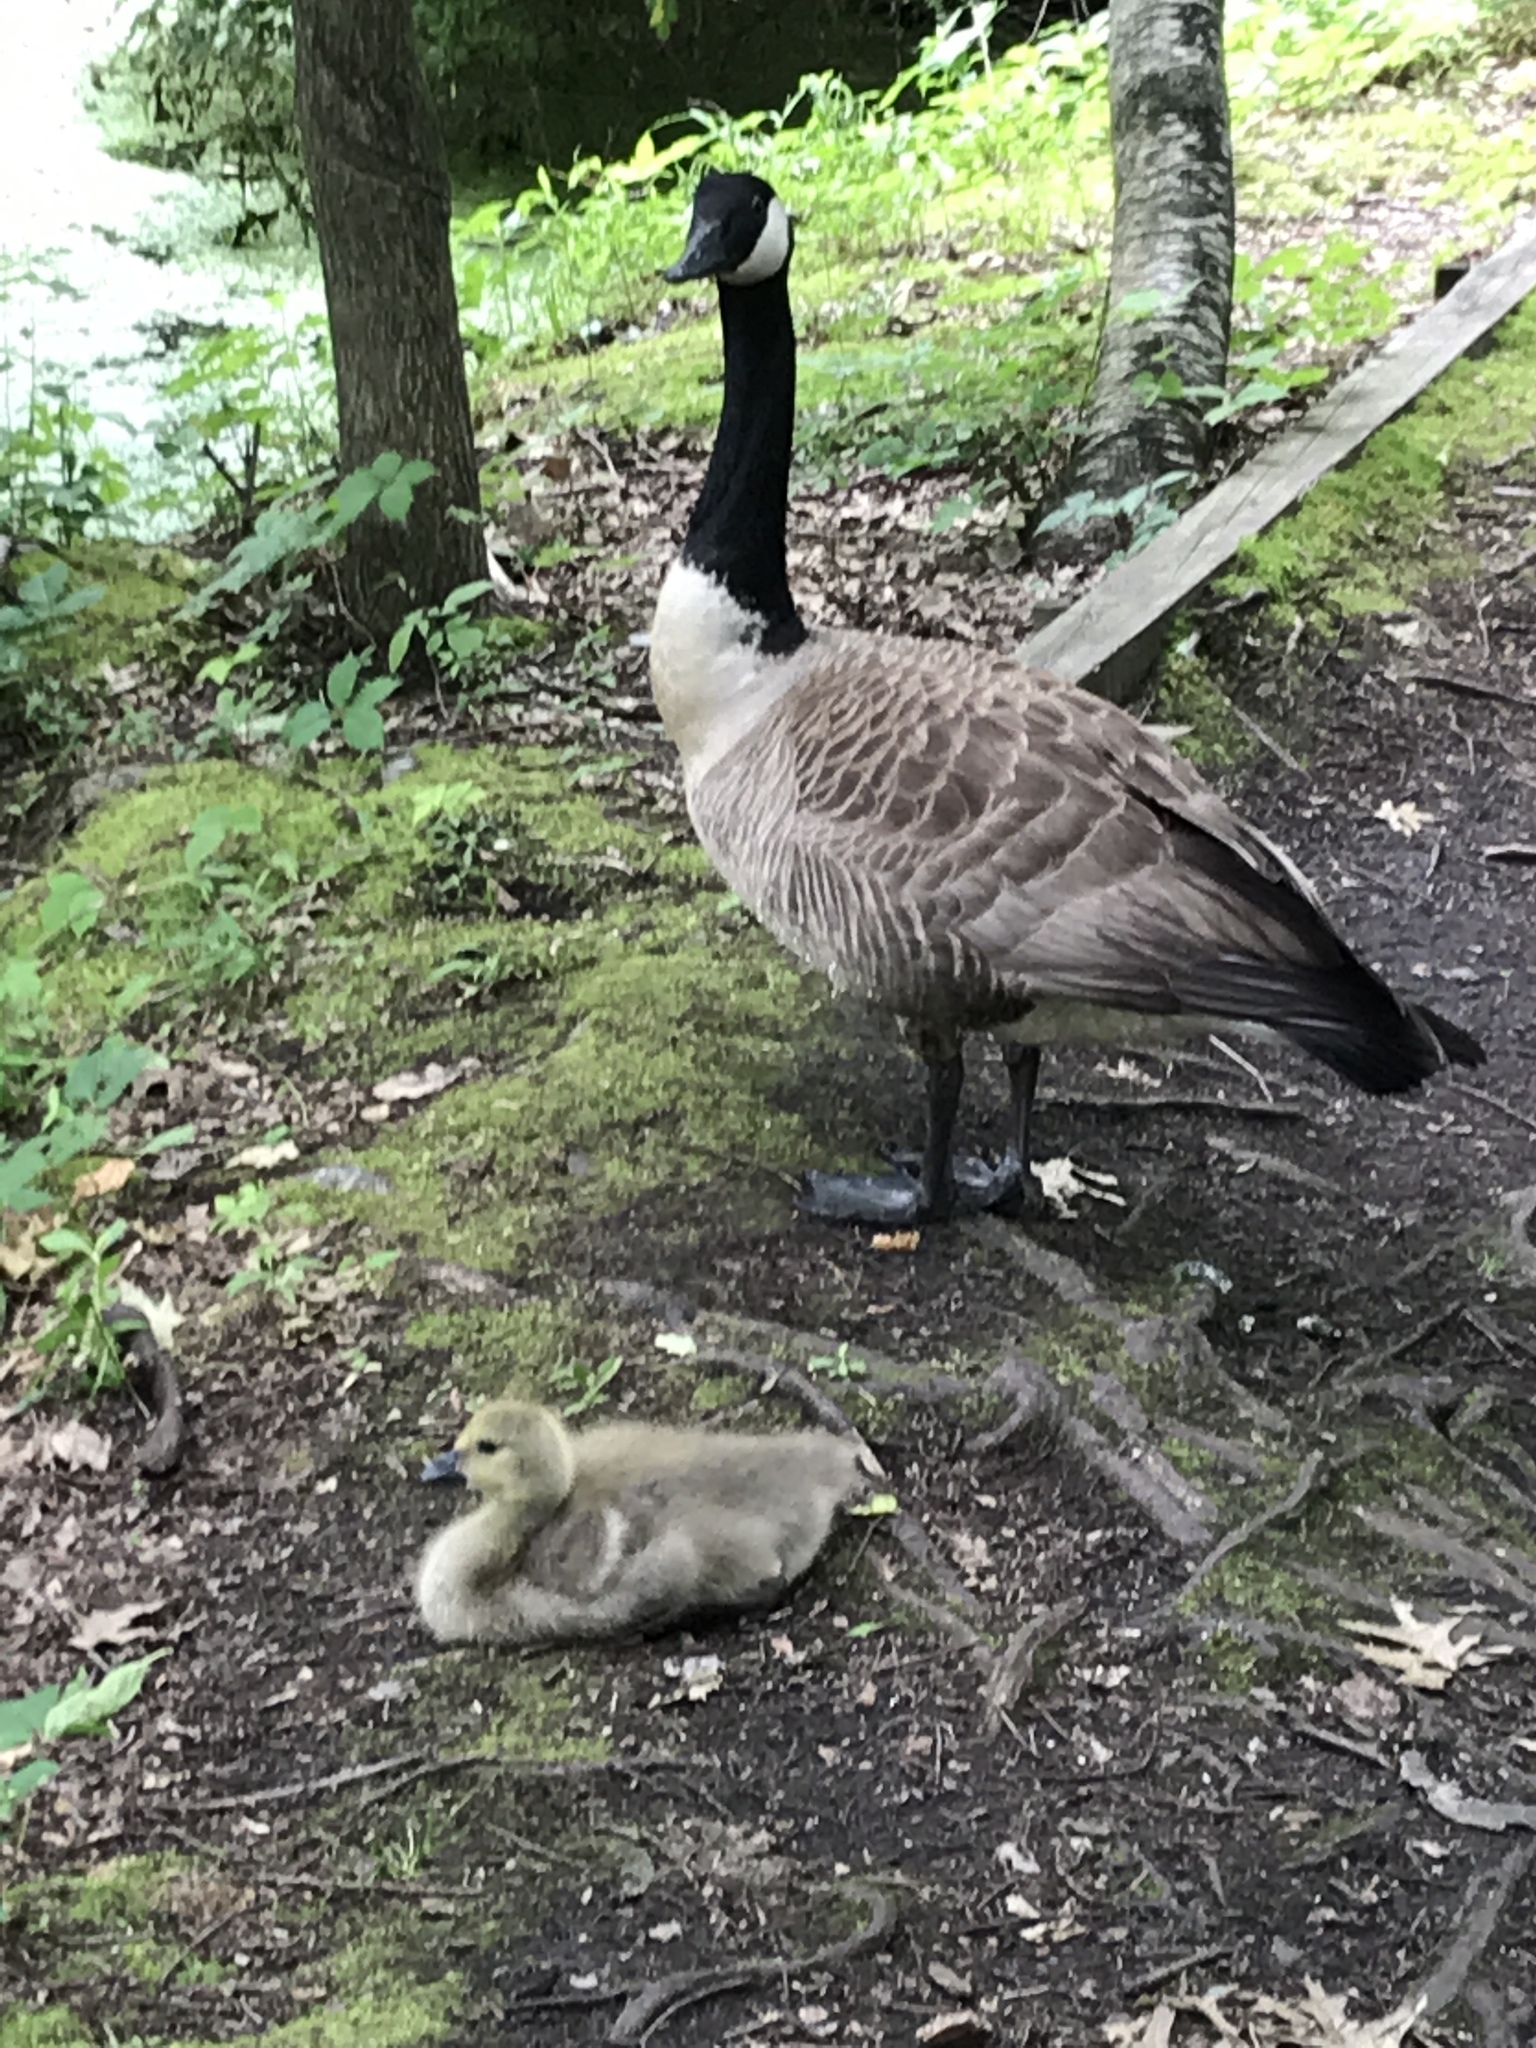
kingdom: Animalia
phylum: Chordata
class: Aves
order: Anseriformes
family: Anatidae
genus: Branta
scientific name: Branta canadensis
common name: Canada goose
